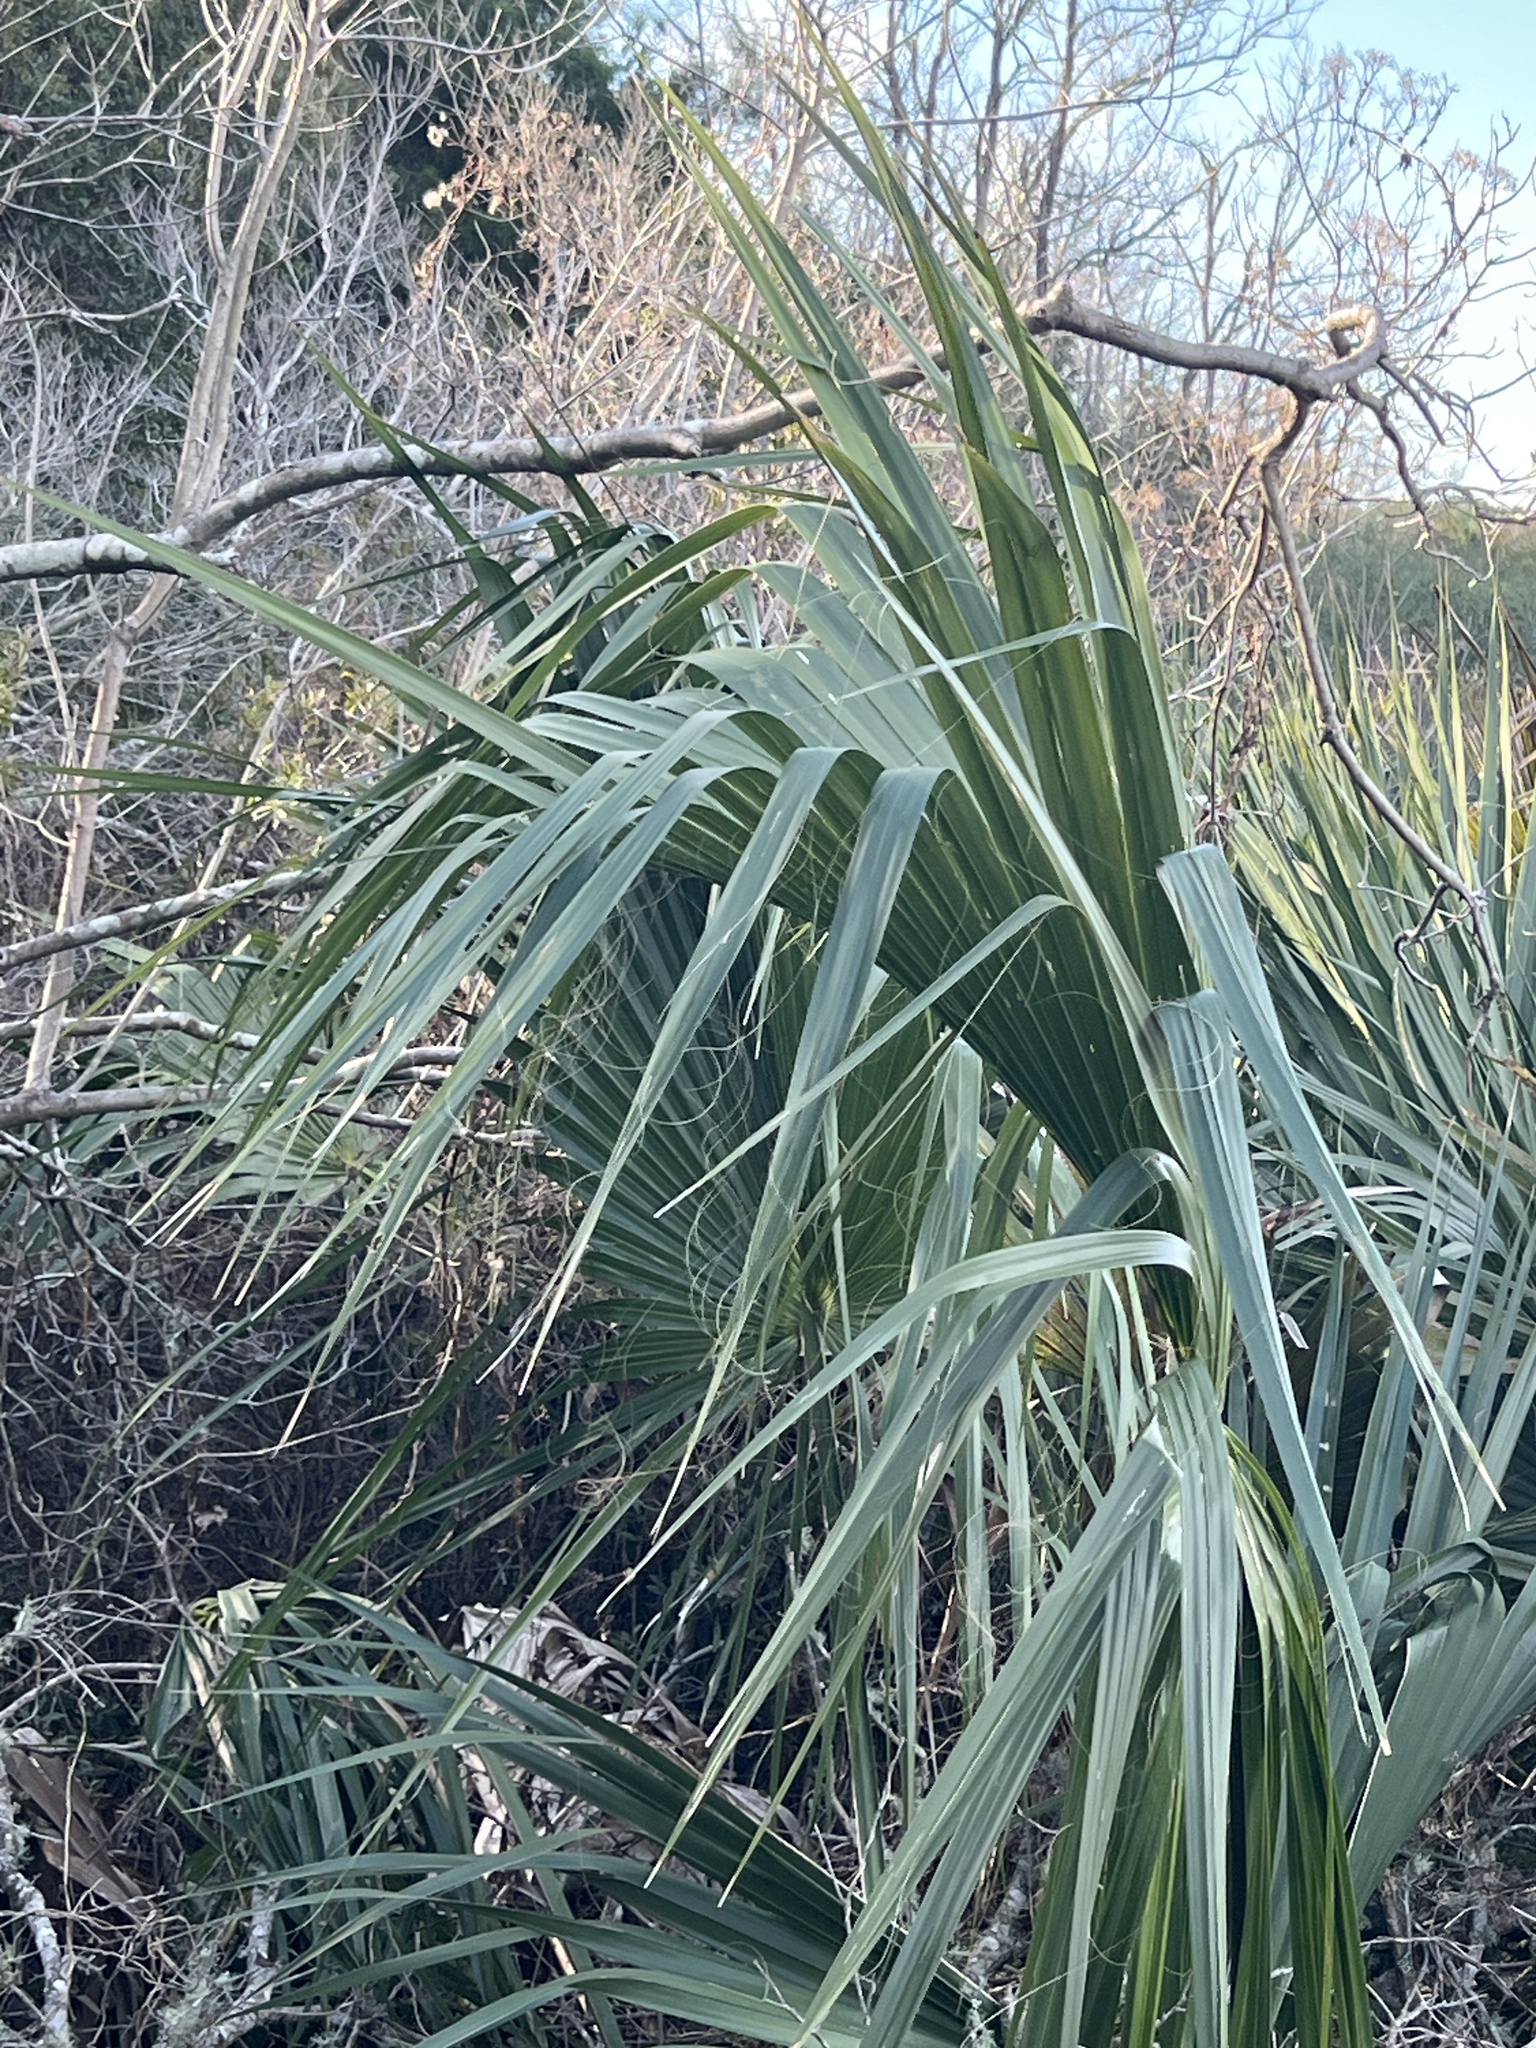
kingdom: Plantae
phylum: Tracheophyta
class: Liliopsida
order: Arecales
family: Arecaceae
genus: Sabal
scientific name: Sabal palmetto
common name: Blue palmetto
